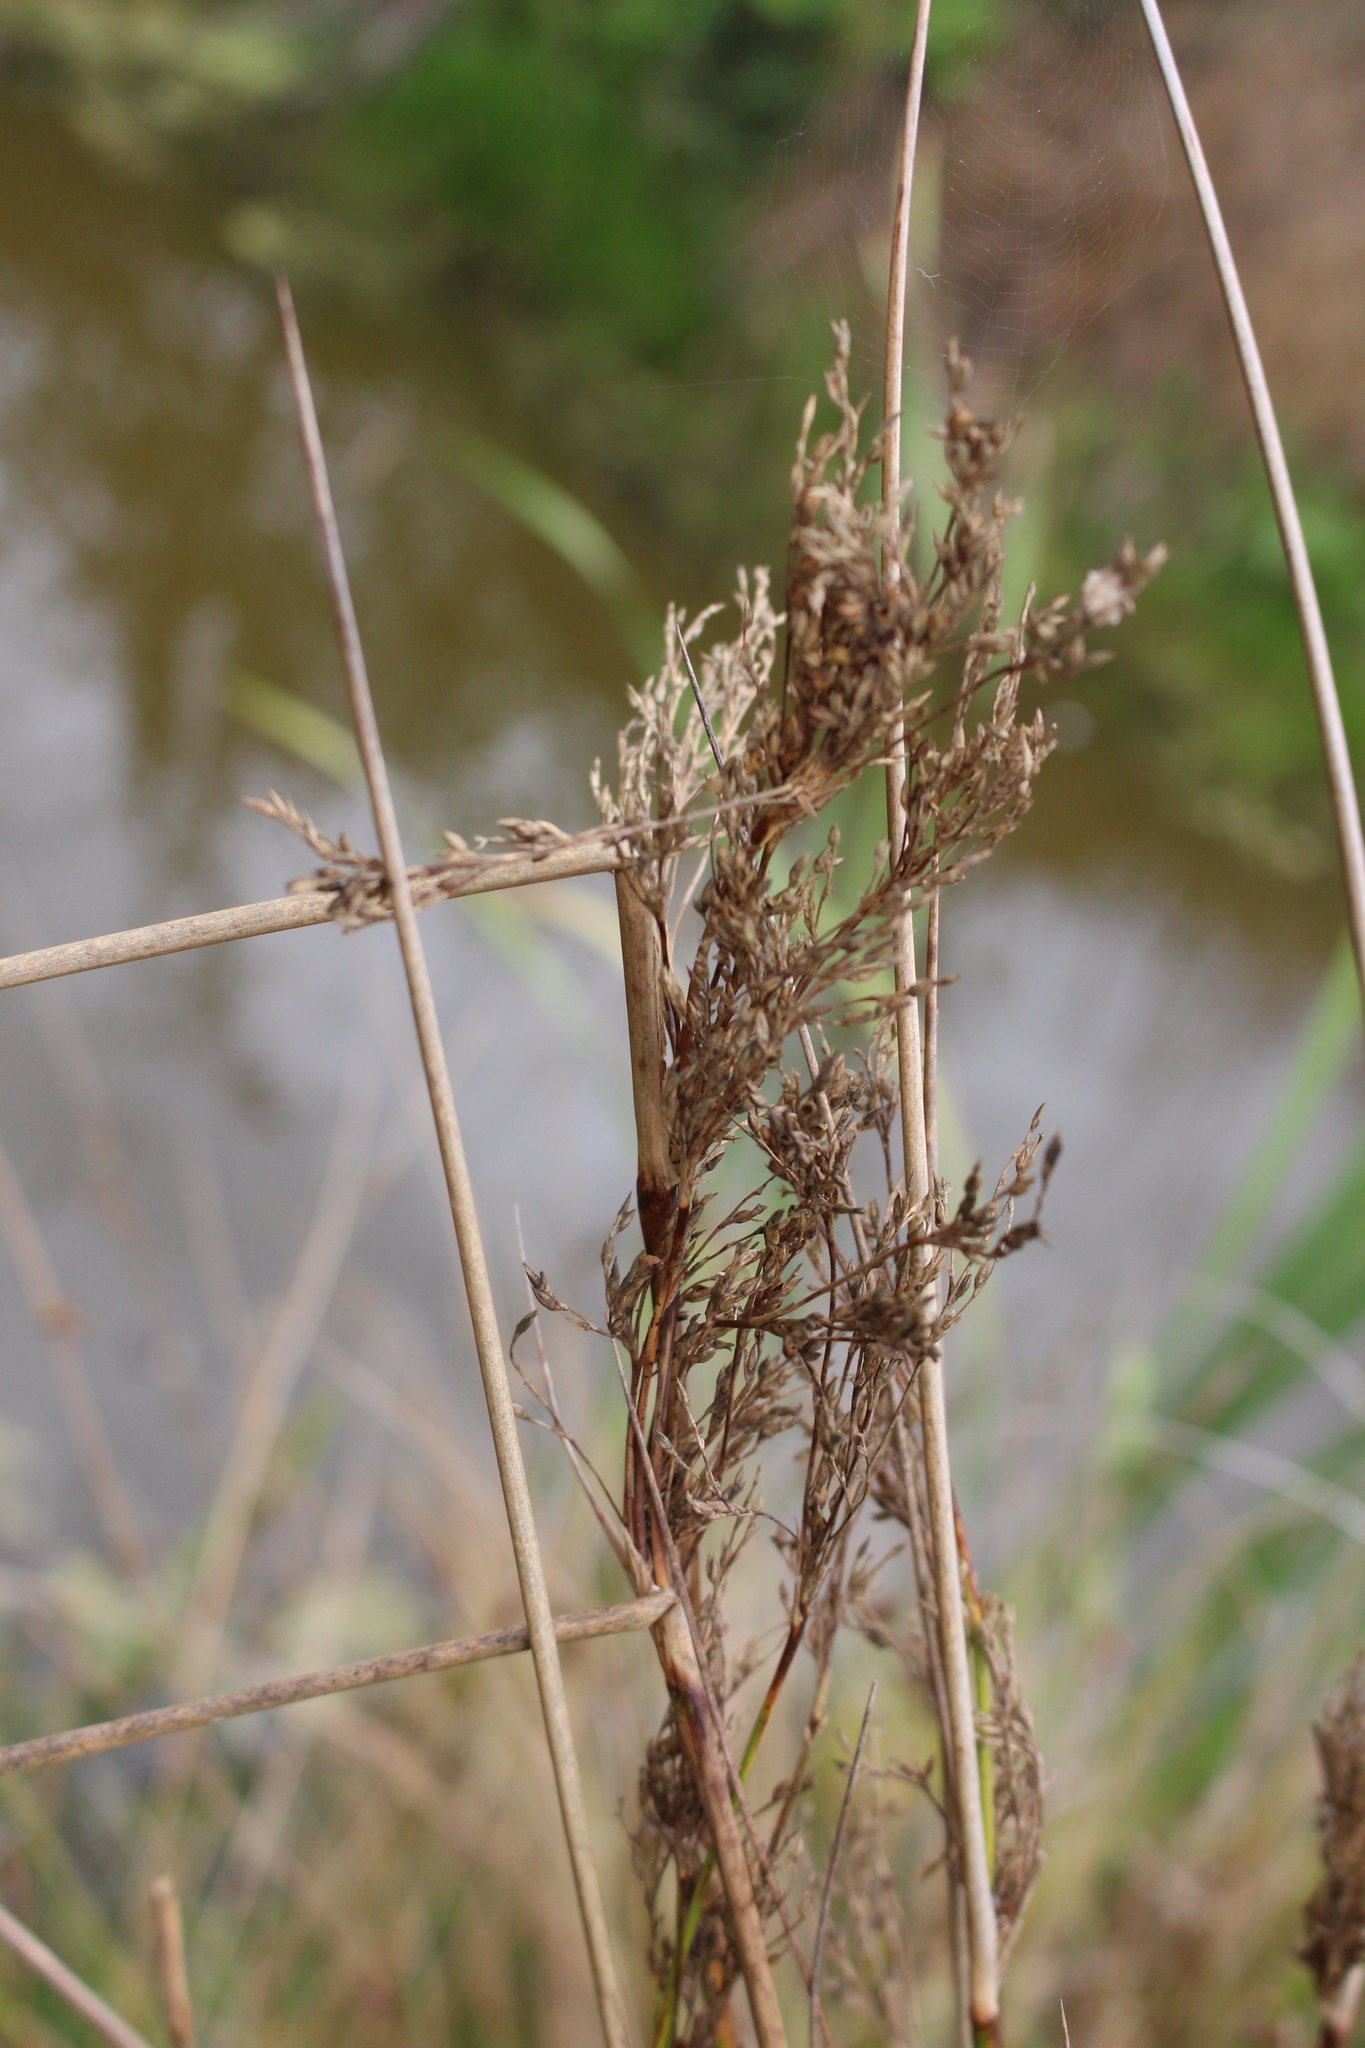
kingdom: Plantae
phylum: Tracheophyta
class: Liliopsida
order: Poales
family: Juncaceae
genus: Juncus
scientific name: Juncus pallidus
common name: Great soft-rush
